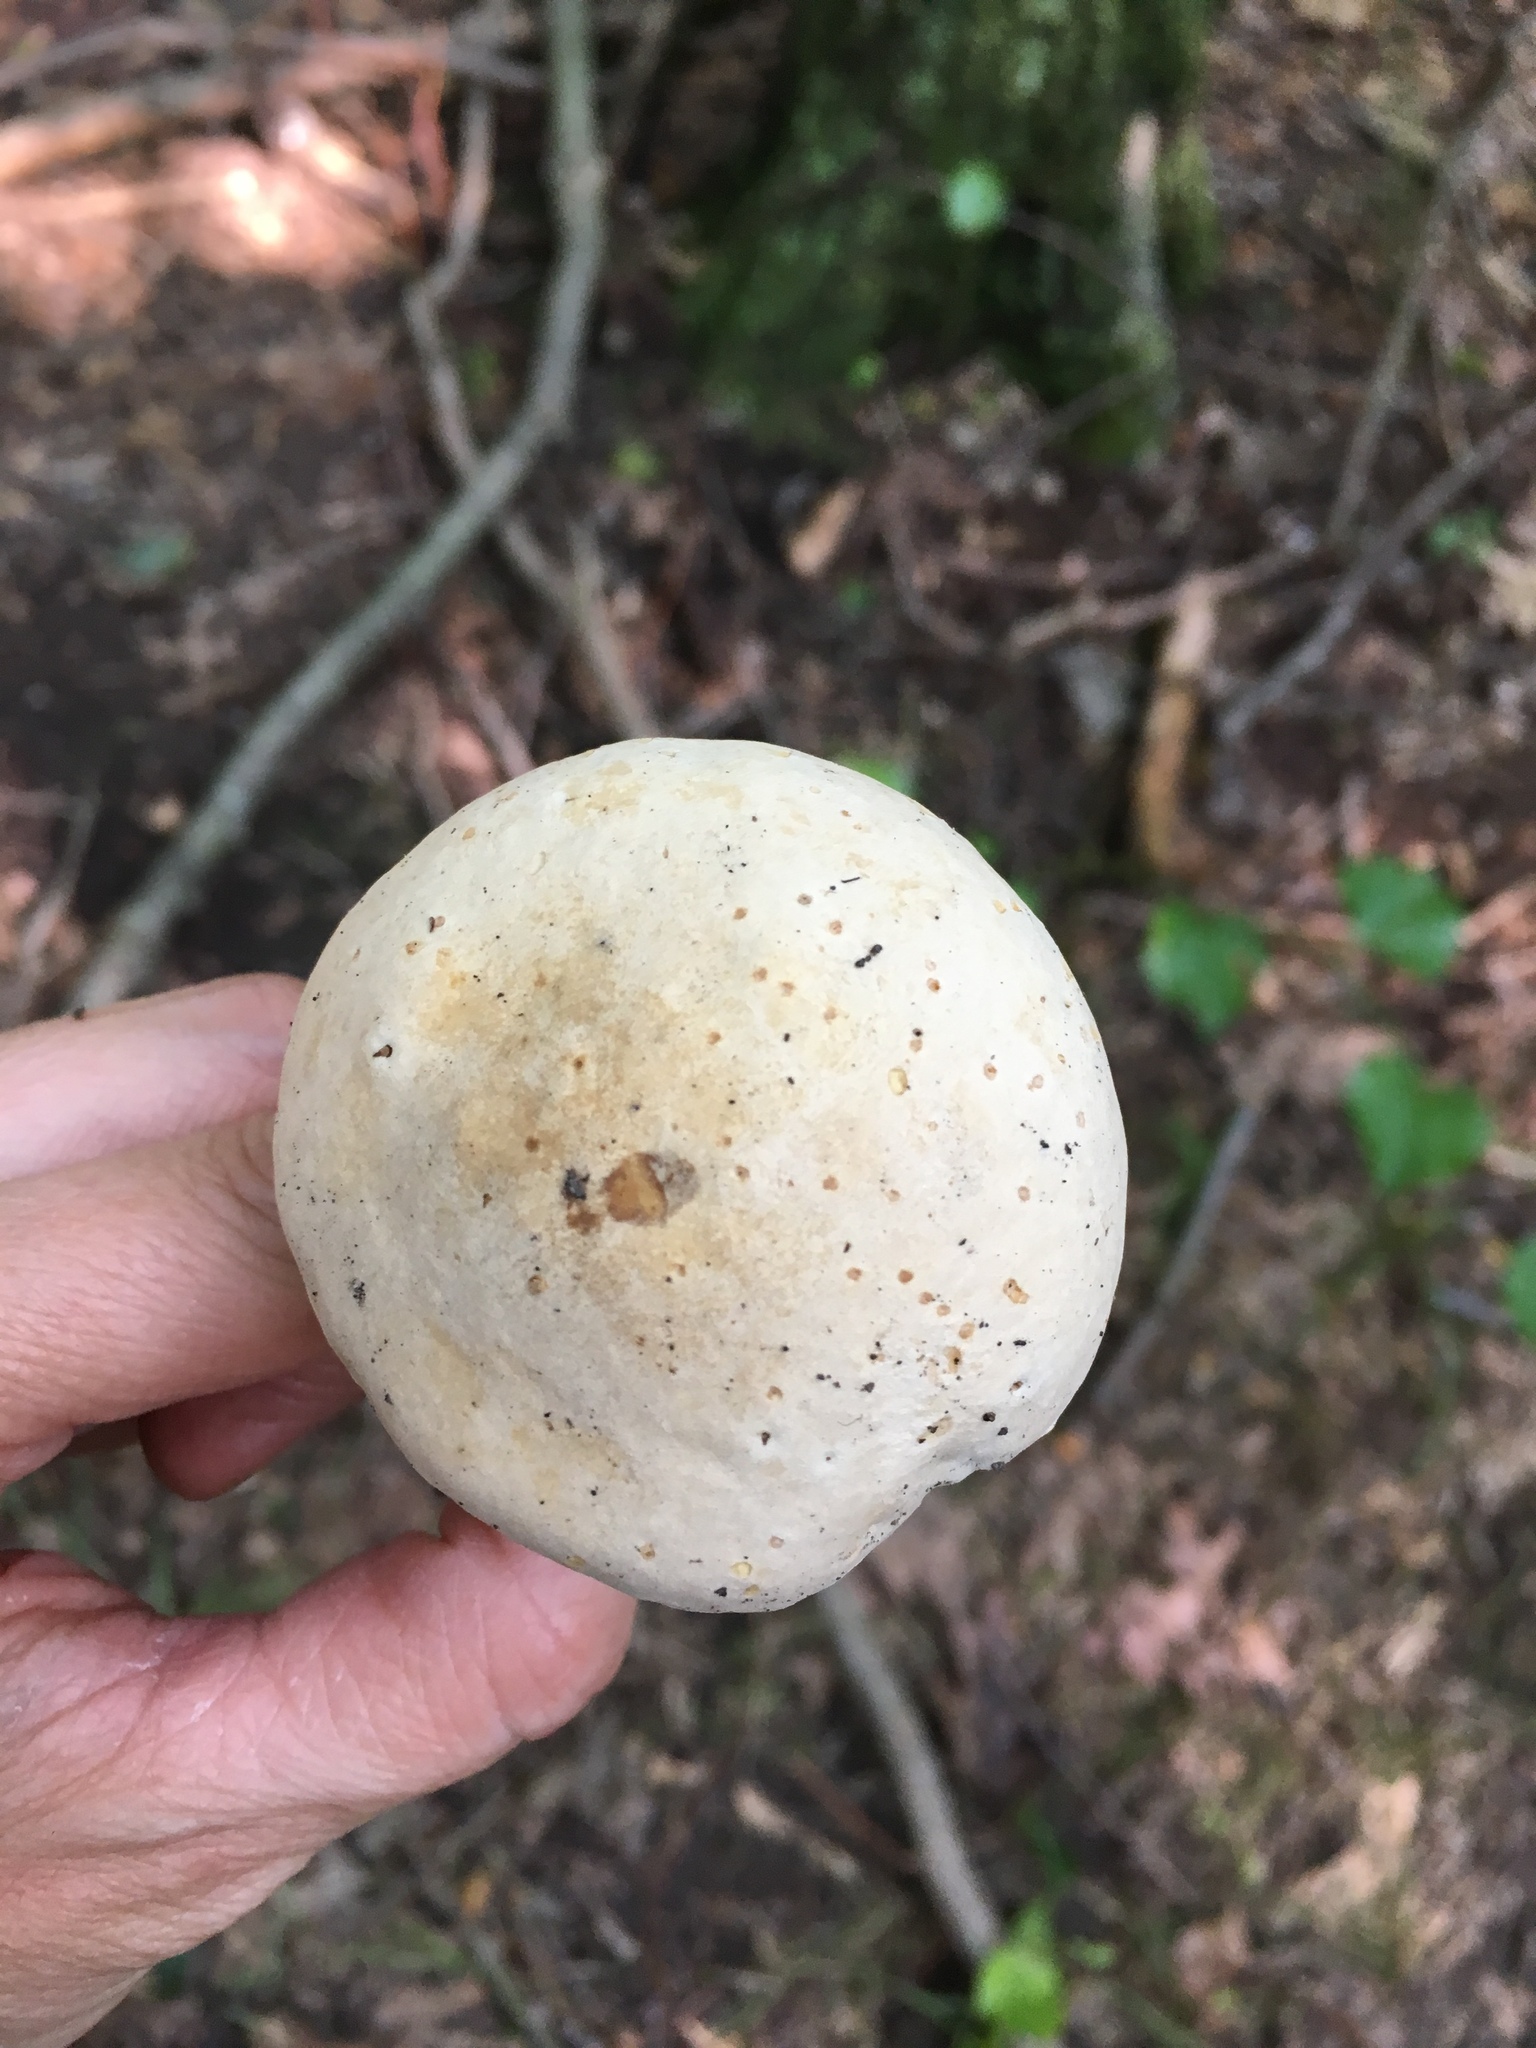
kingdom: Fungi
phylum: Basidiomycota
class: Agaricomycetes
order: Boletales
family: Boletaceae
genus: Imleria
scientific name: Imleria pallida
